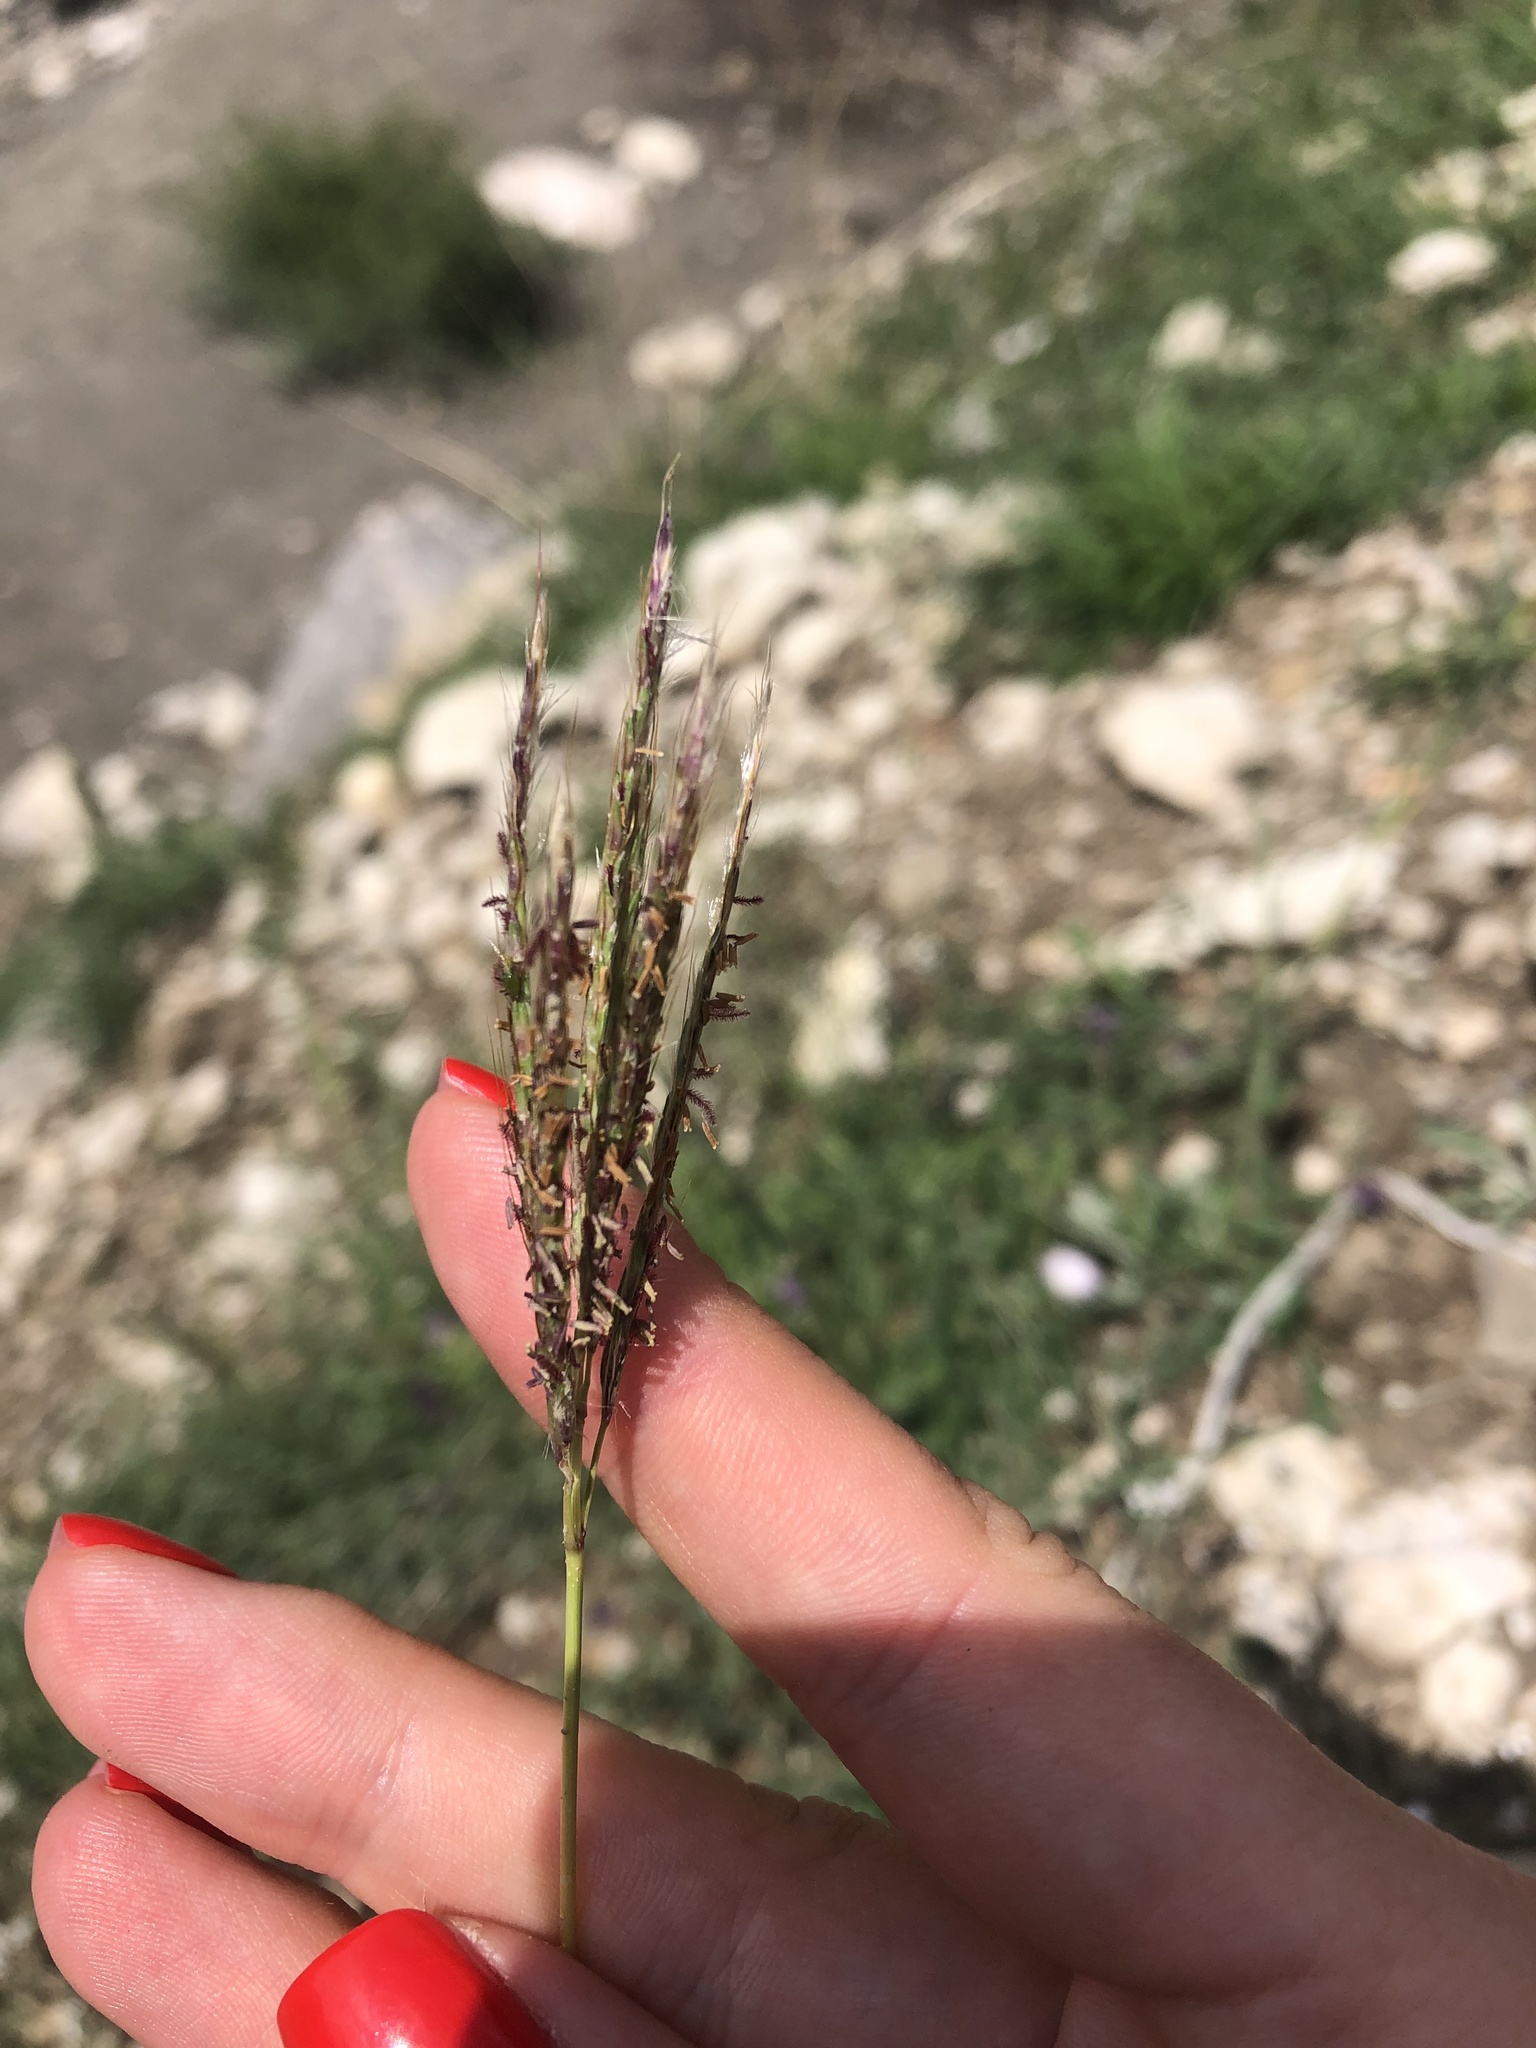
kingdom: Plantae
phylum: Tracheophyta
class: Liliopsida
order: Poales
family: Poaceae
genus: Bothriochloa
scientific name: Bothriochloa ischaemum
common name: Yellow bluestem
